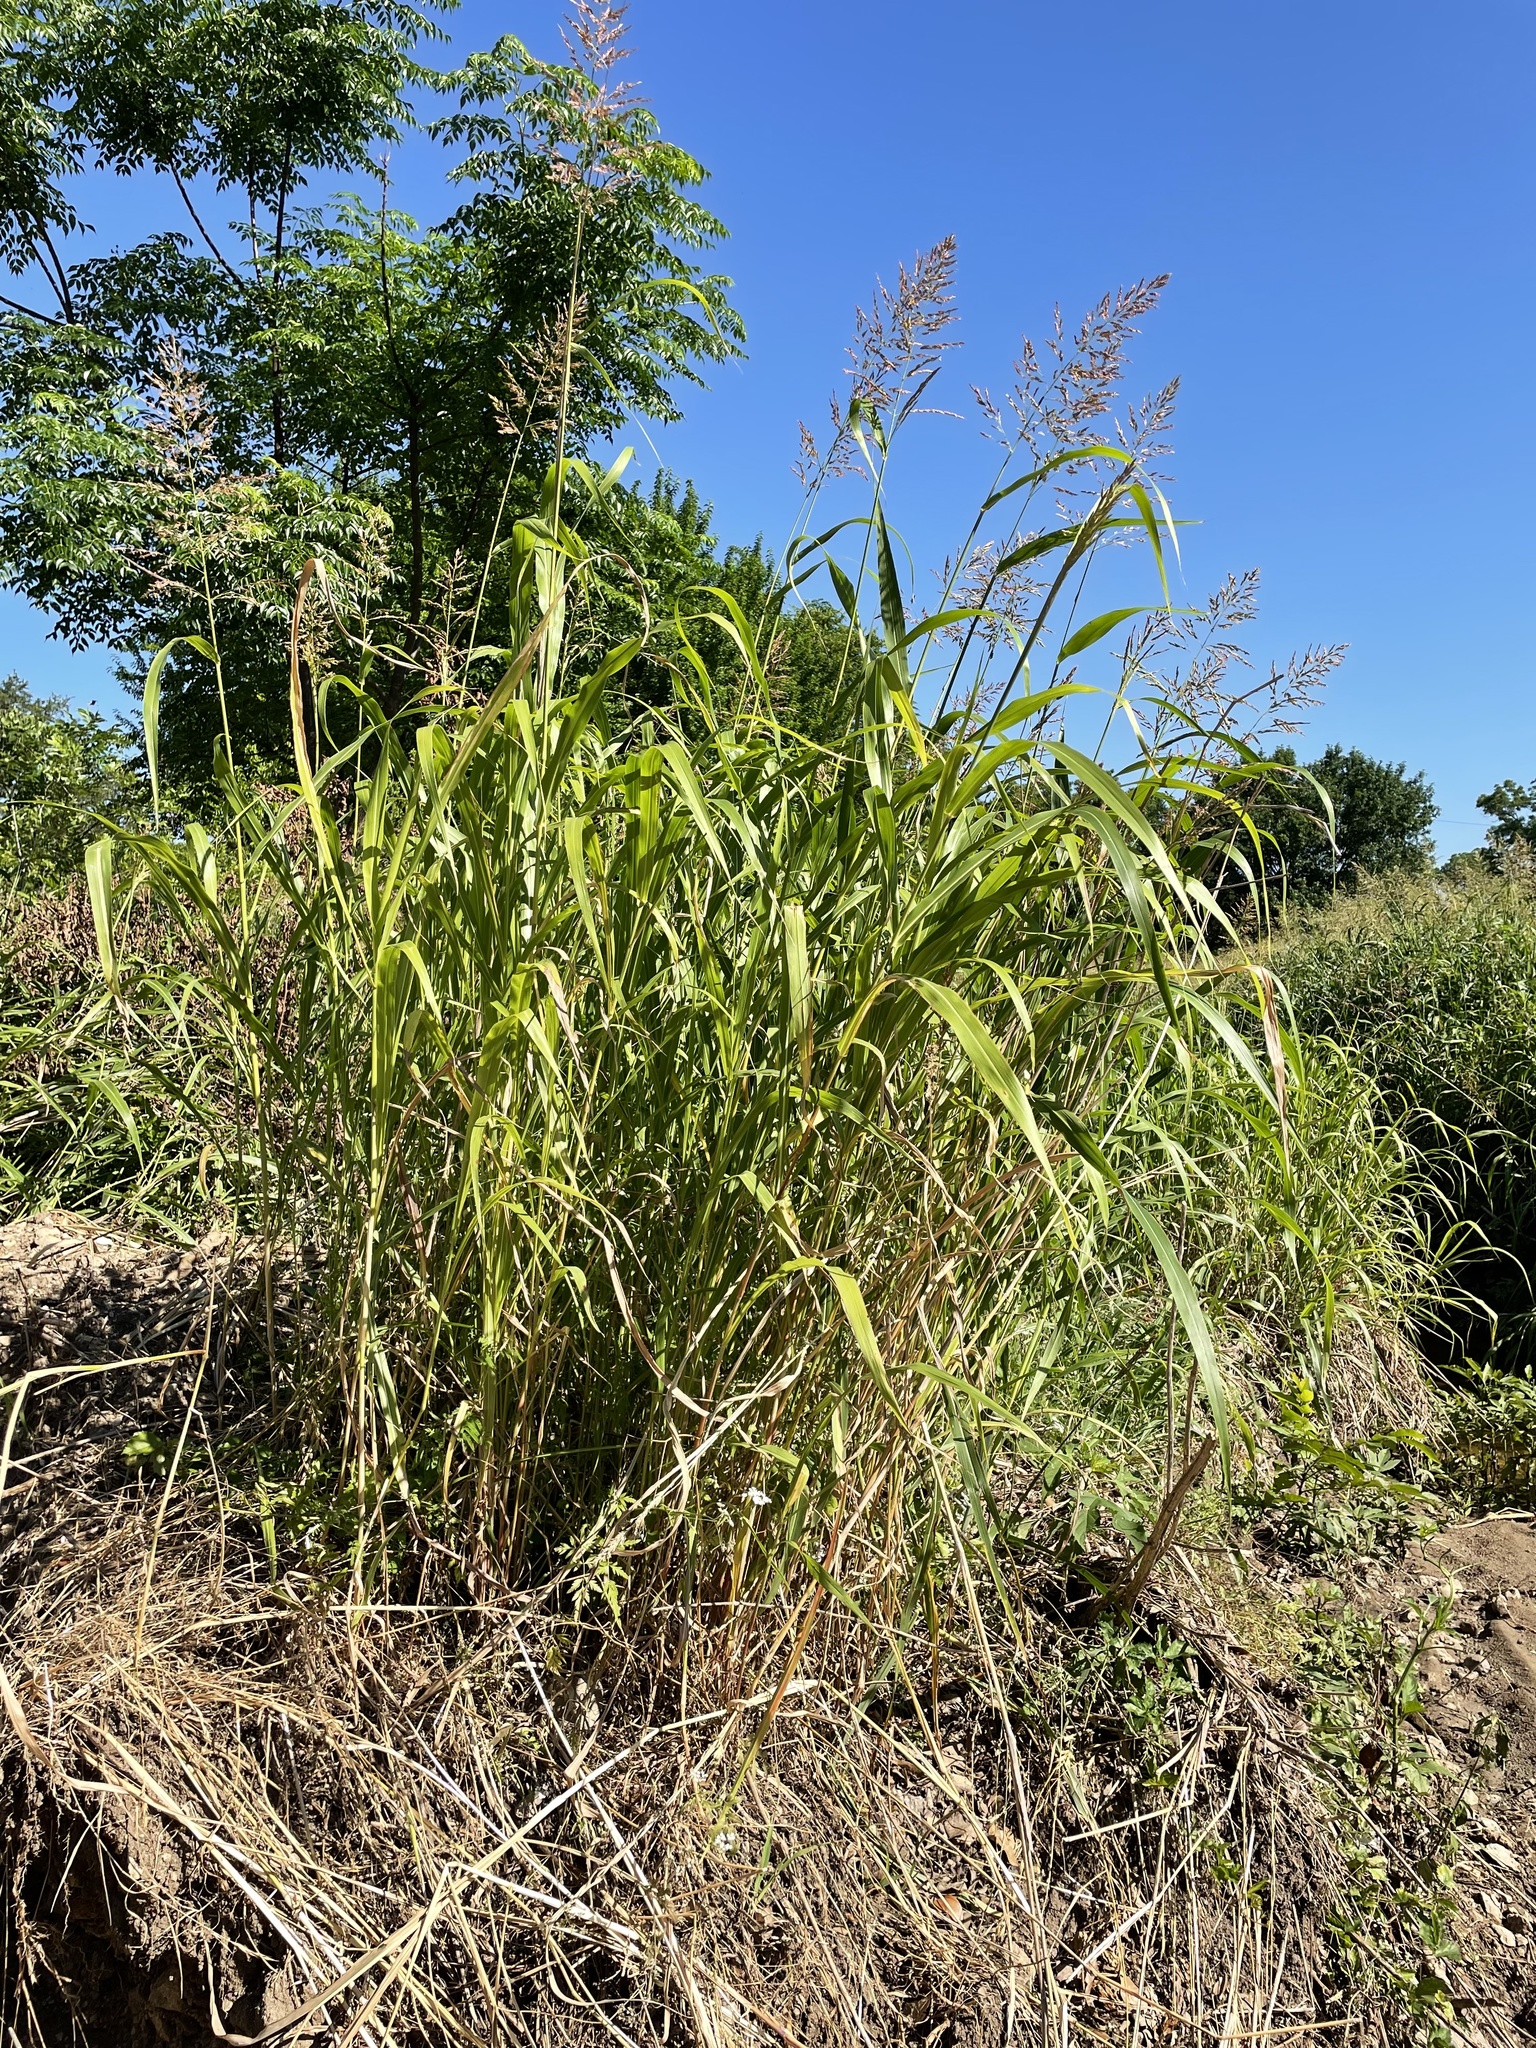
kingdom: Plantae
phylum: Tracheophyta
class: Liliopsida
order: Poales
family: Poaceae
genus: Sorghum
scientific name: Sorghum halepense
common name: Johnson-grass
